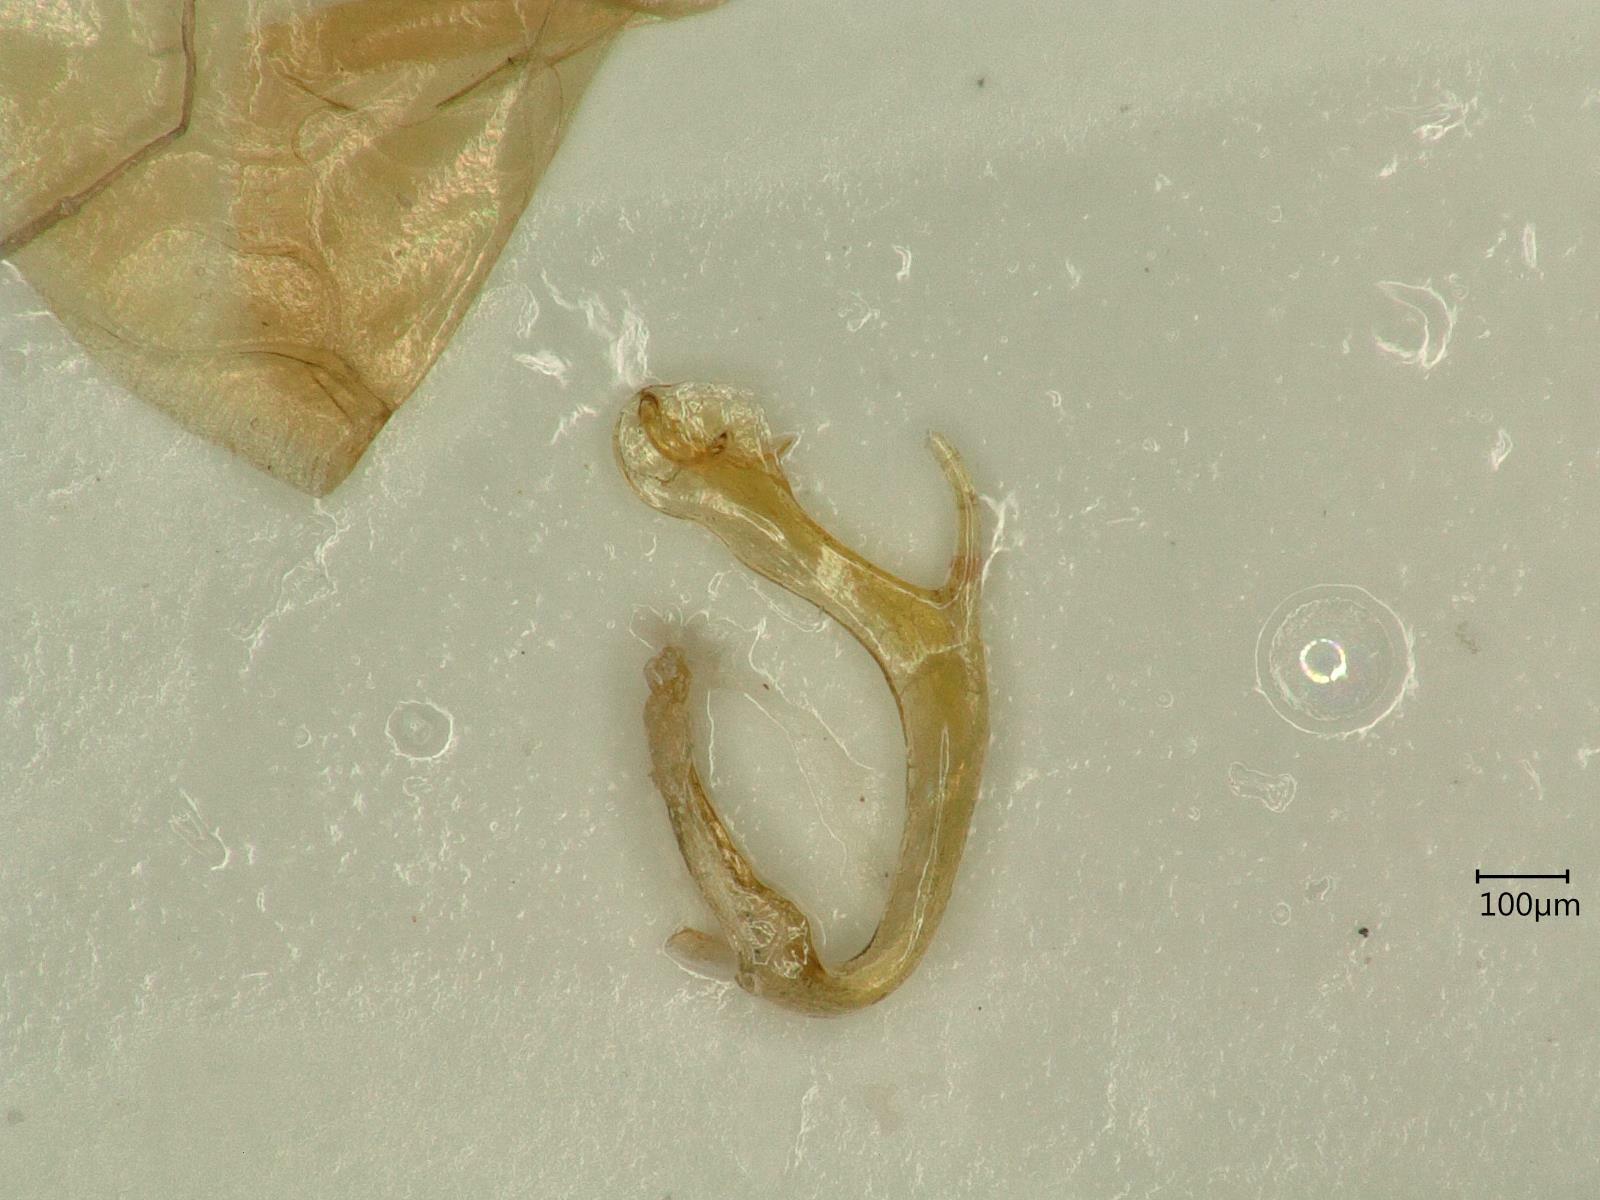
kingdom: Animalia
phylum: Arthropoda
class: Insecta
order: Hemiptera
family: Cicadellidae
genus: Thamnotettix
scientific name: Thamnotettix confinis
